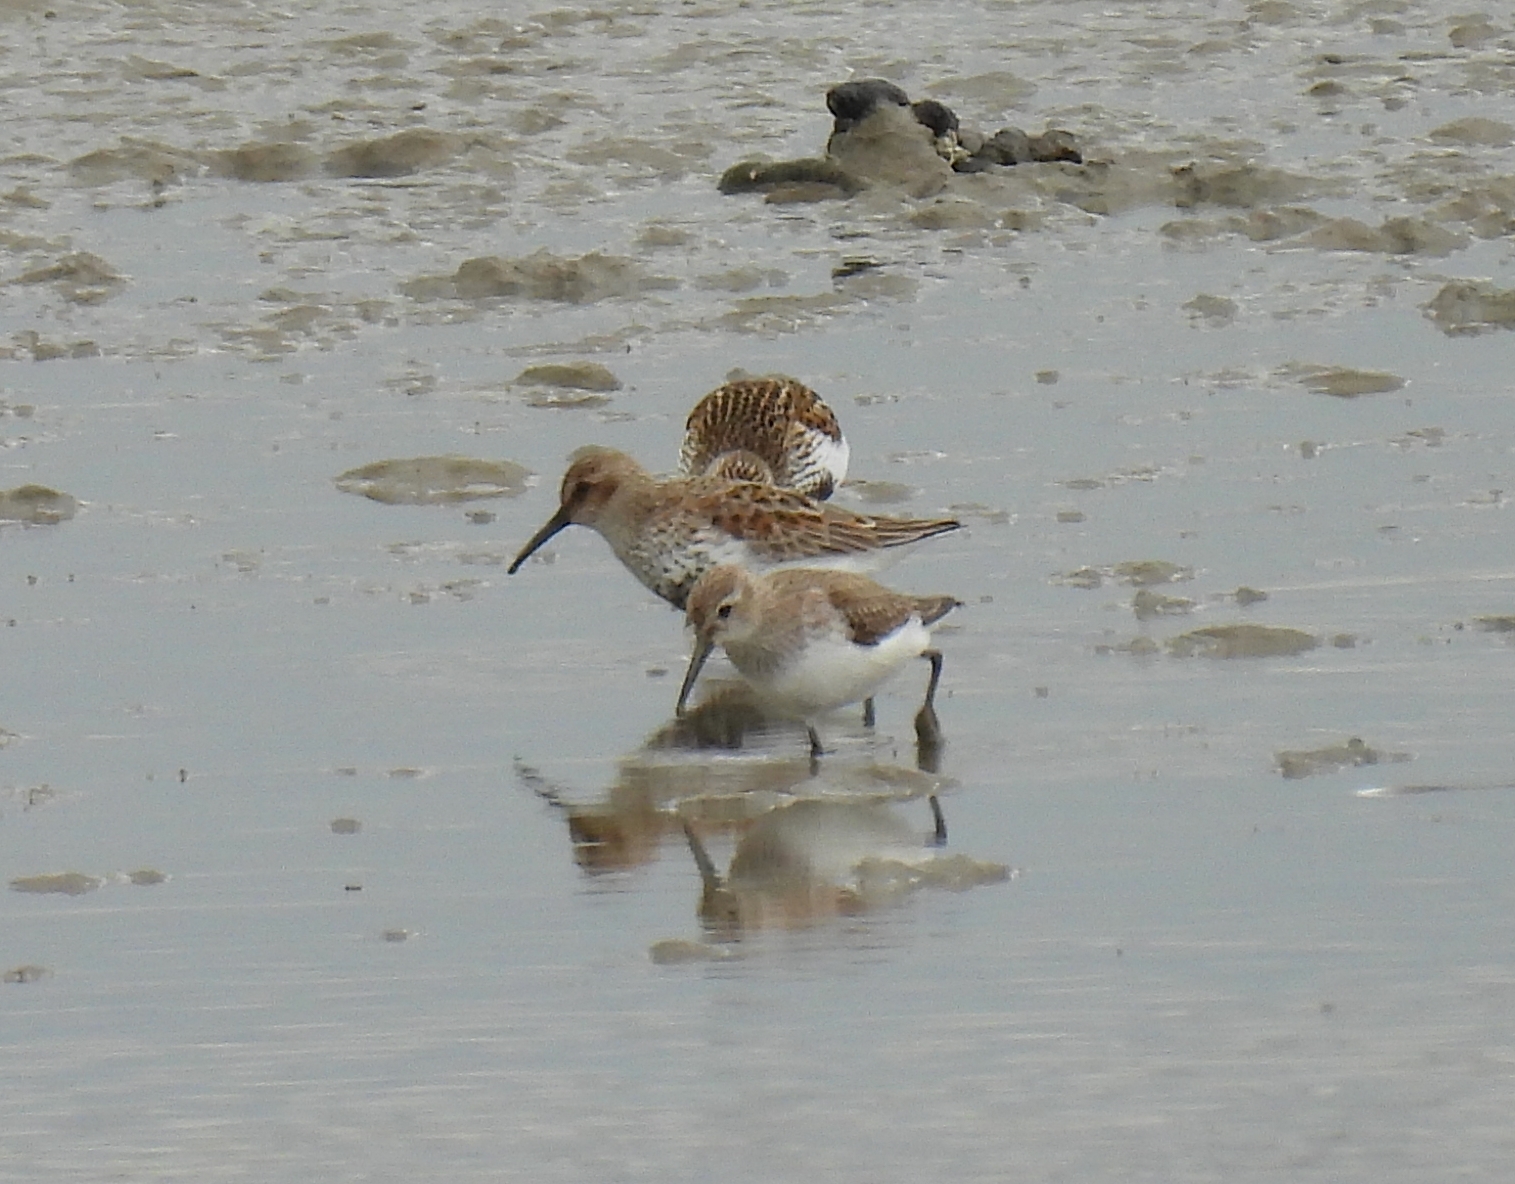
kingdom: Animalia
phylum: Chordata
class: Aves
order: Charadriiformes
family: Scolopacidae
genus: Calidris
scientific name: Calidris alpina
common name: Dunlin
